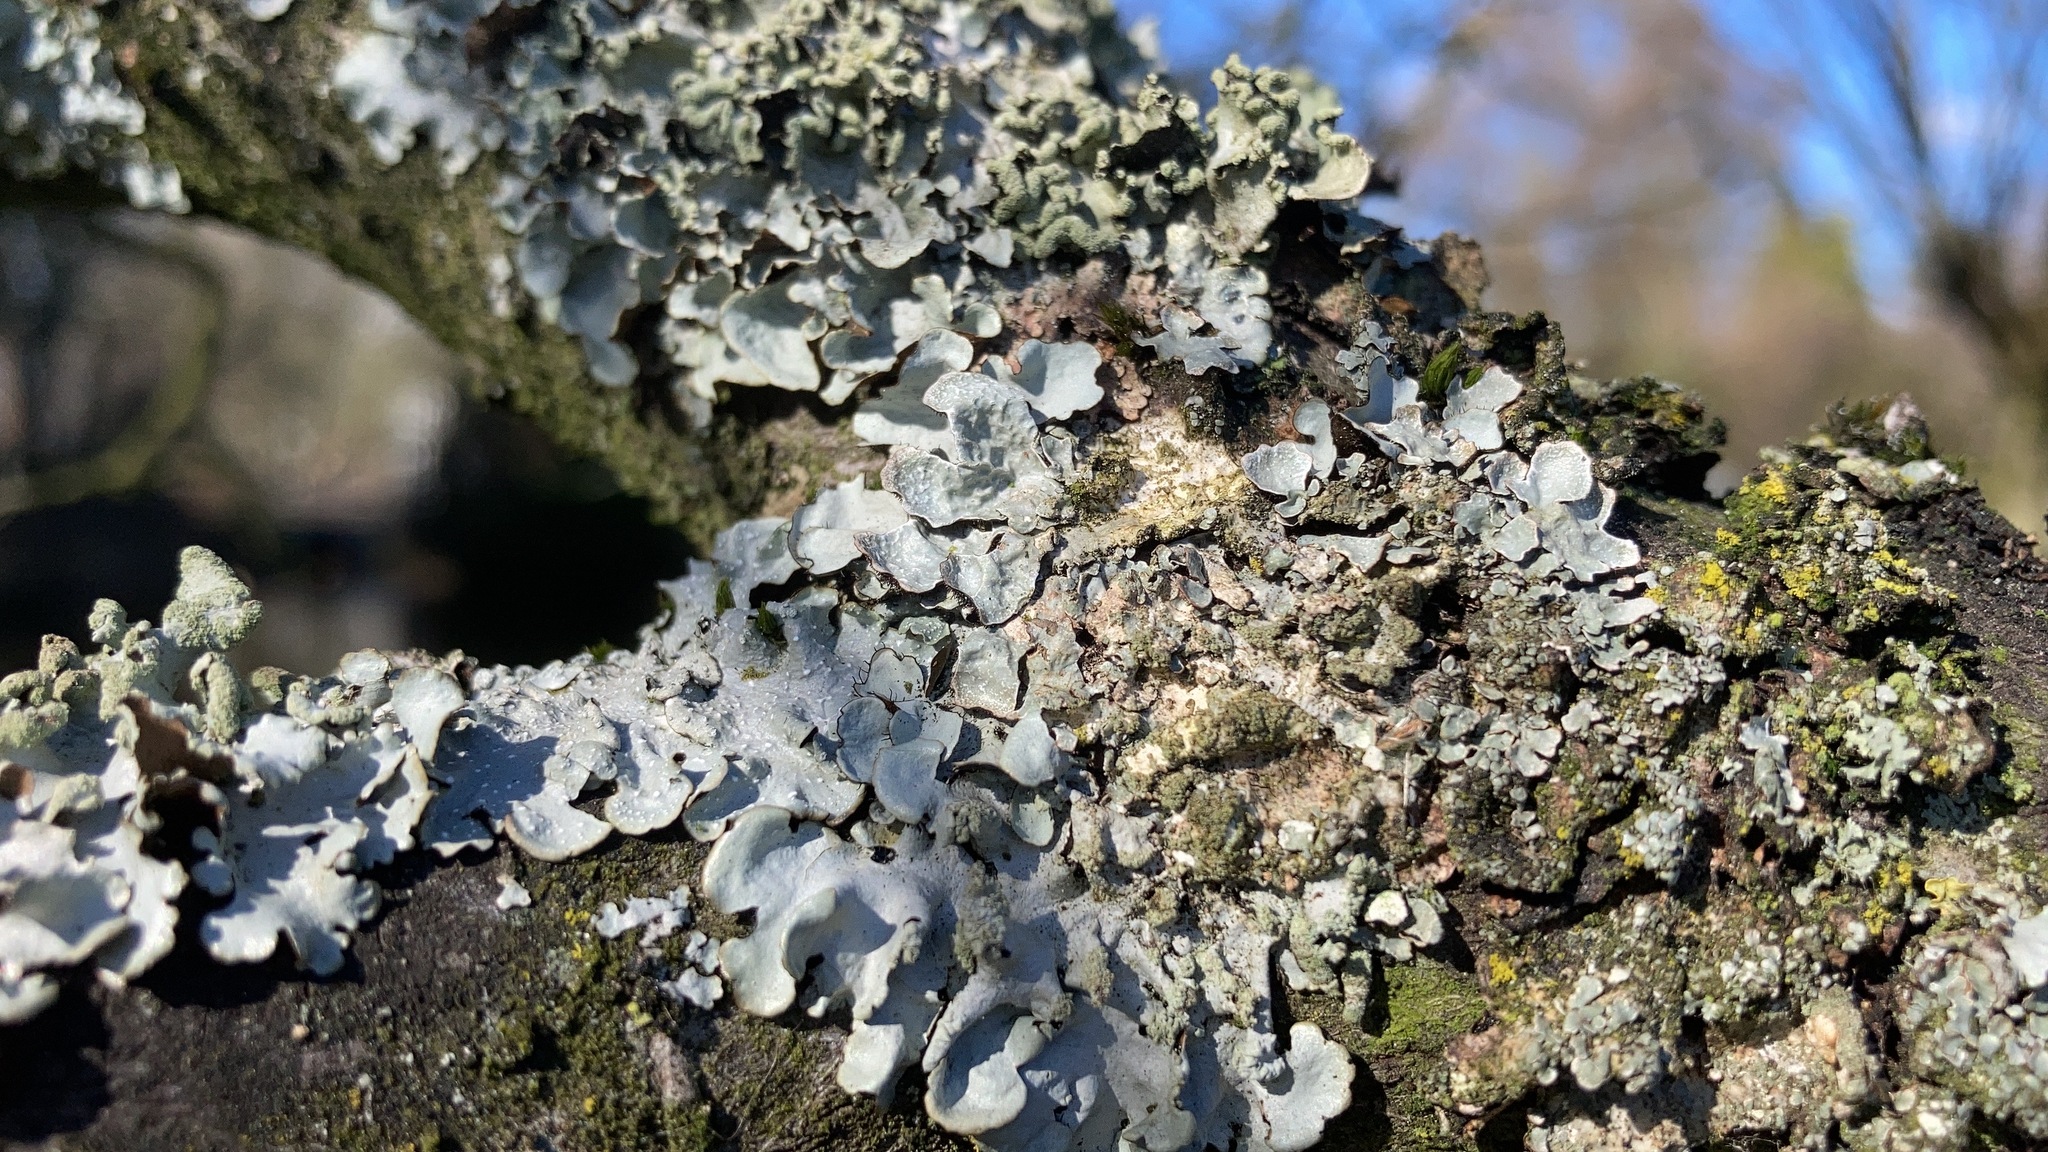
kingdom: Fungi
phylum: Ascomycota
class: Lecanoromycetes
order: Lecanorales
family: Parmeliaceae
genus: Parmelia
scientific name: Parmelia sulcata
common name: Netted shield lichen
